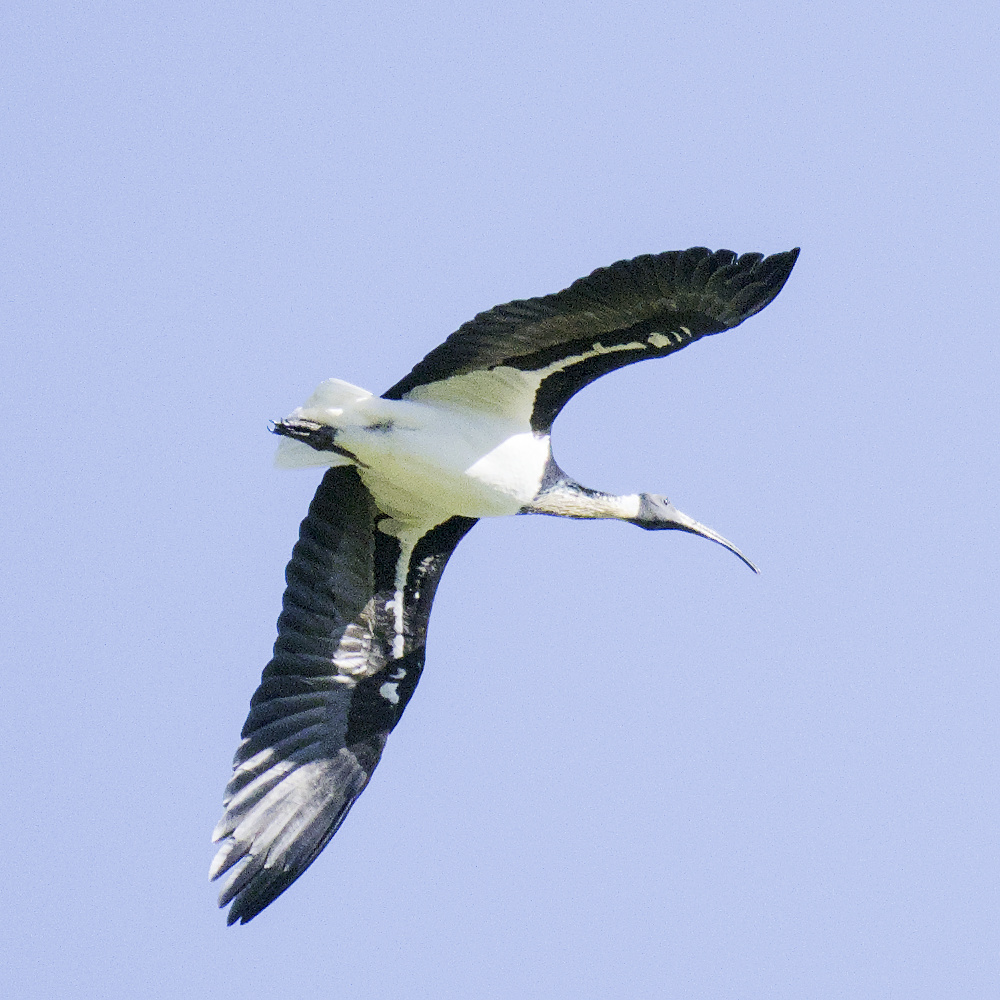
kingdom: Animalia
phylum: Chordata
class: Aves
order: Pelecaniformes
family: Threskiornithidae
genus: Threskiornis
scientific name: Threskiornis spinicollis
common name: Straw-necked ibis
